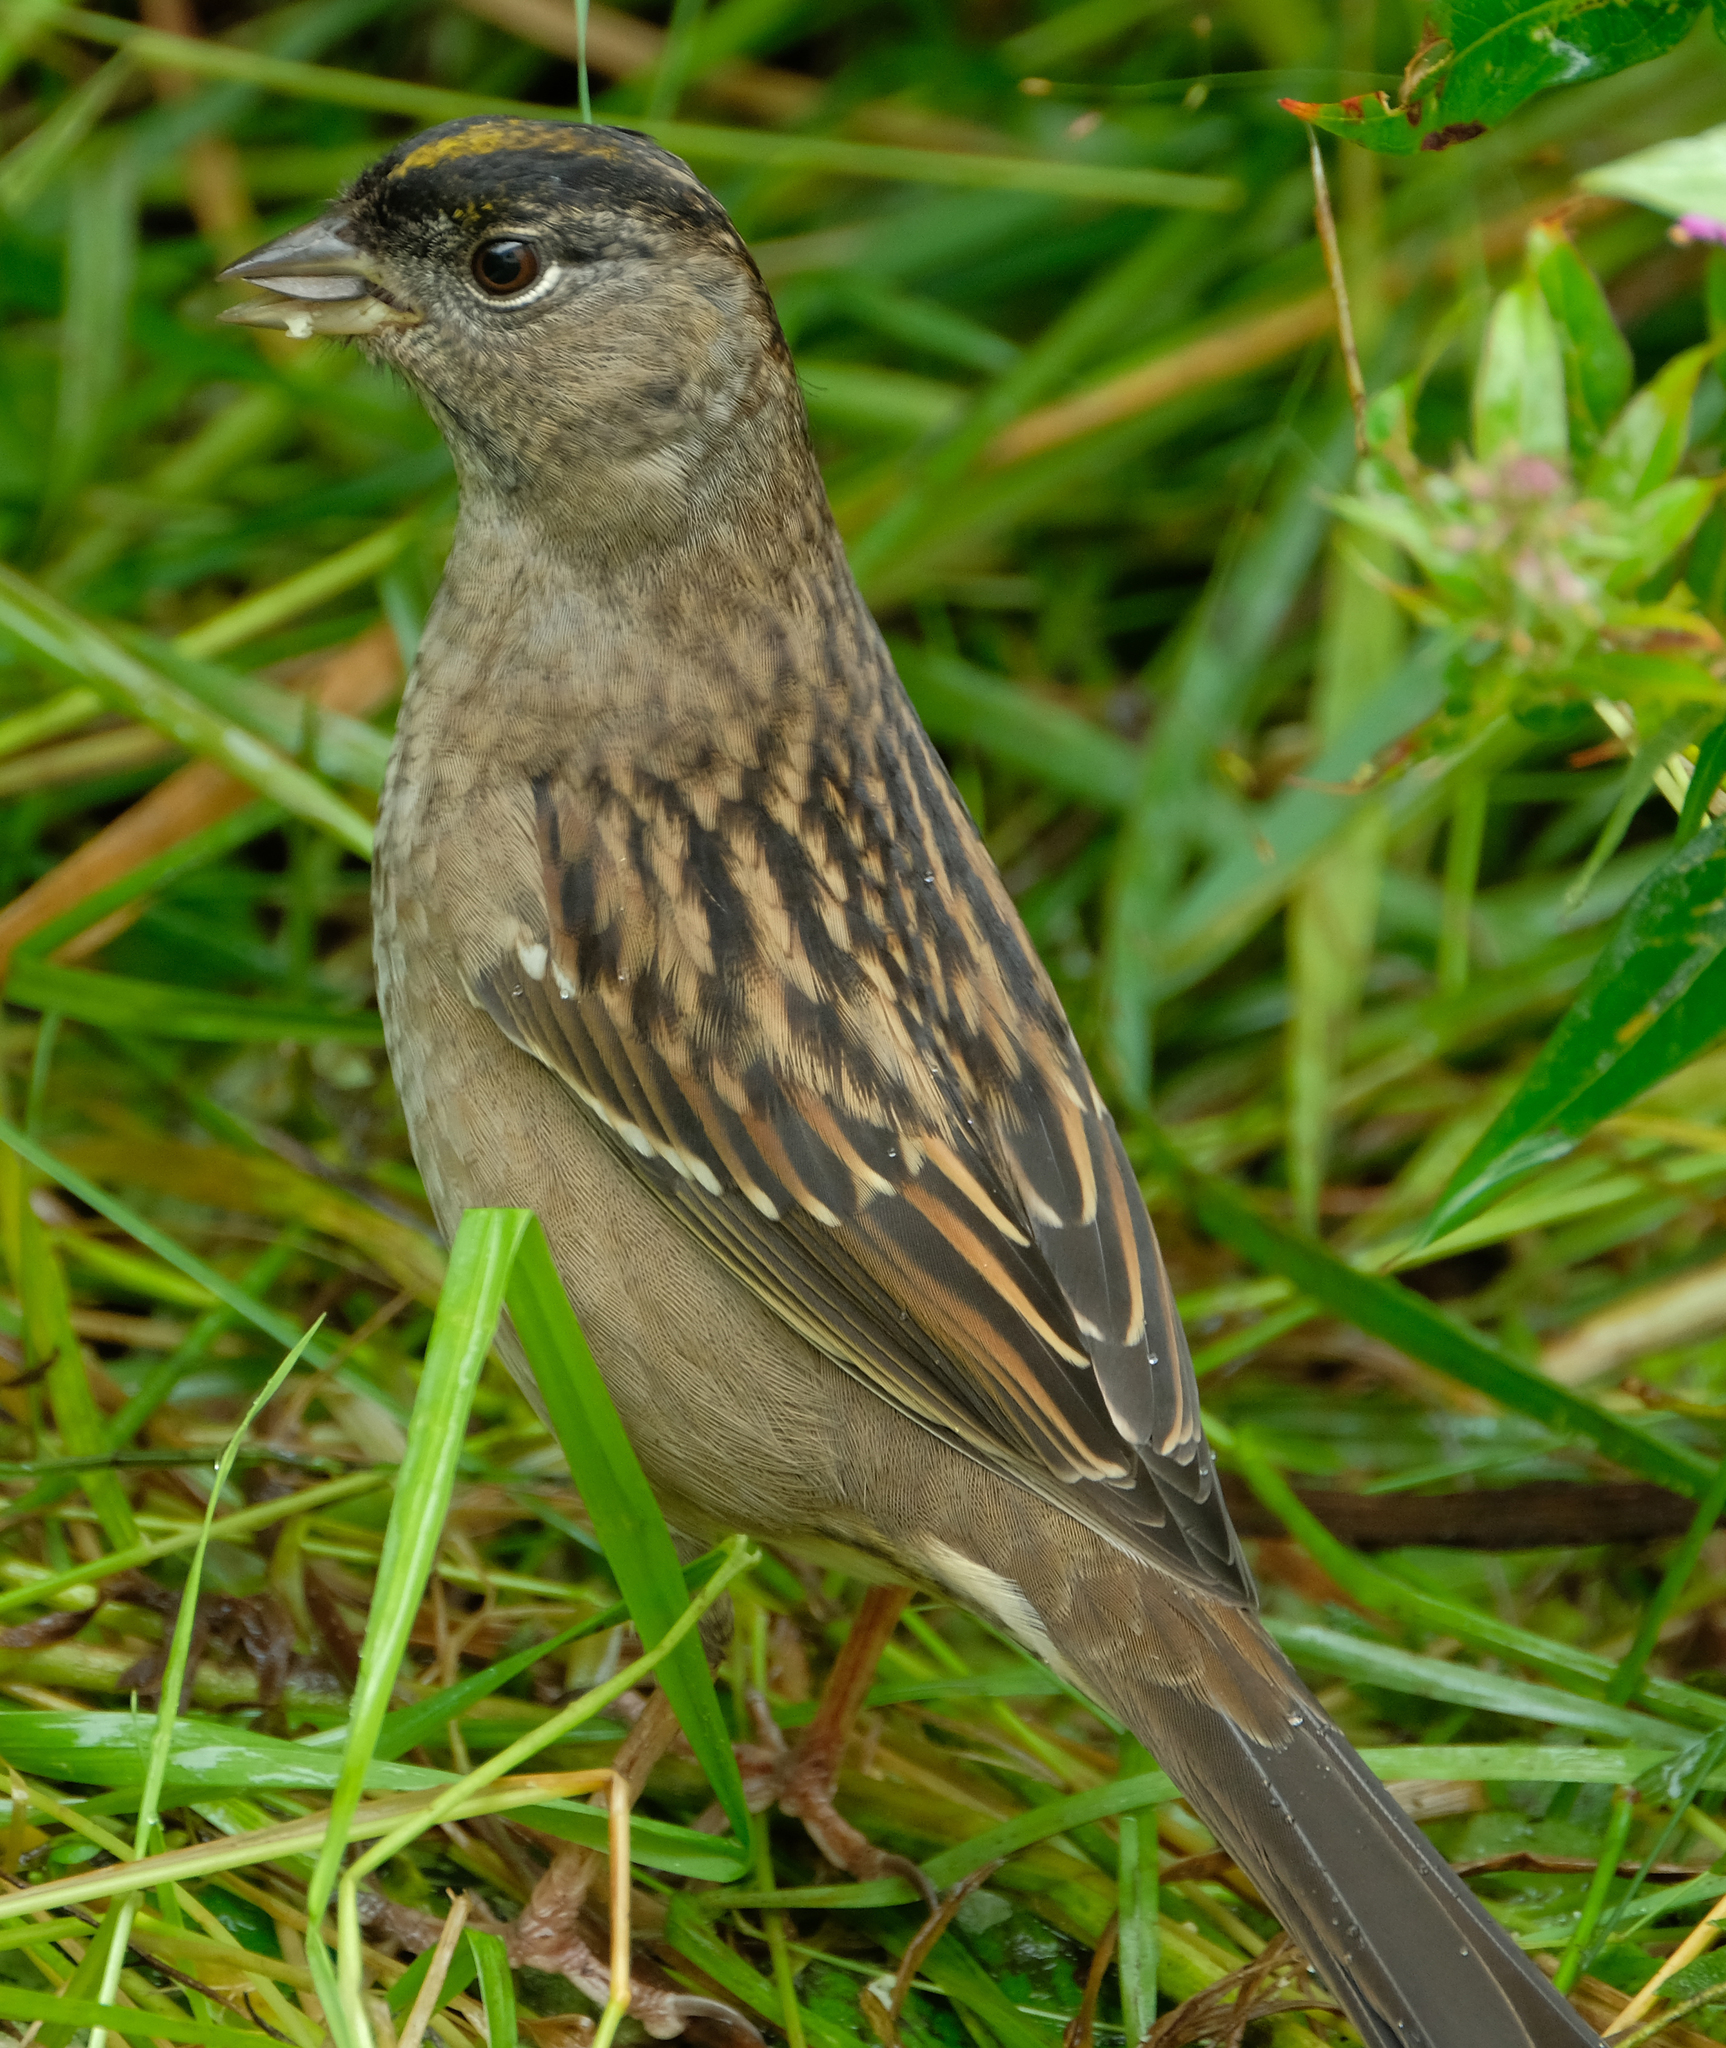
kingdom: Animalia
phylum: Chordata
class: Aves
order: Passeriformes
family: Passerellidae
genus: Zonotrichia
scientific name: Zonotrichia atricapilla
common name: Golden-crowned sparrow
